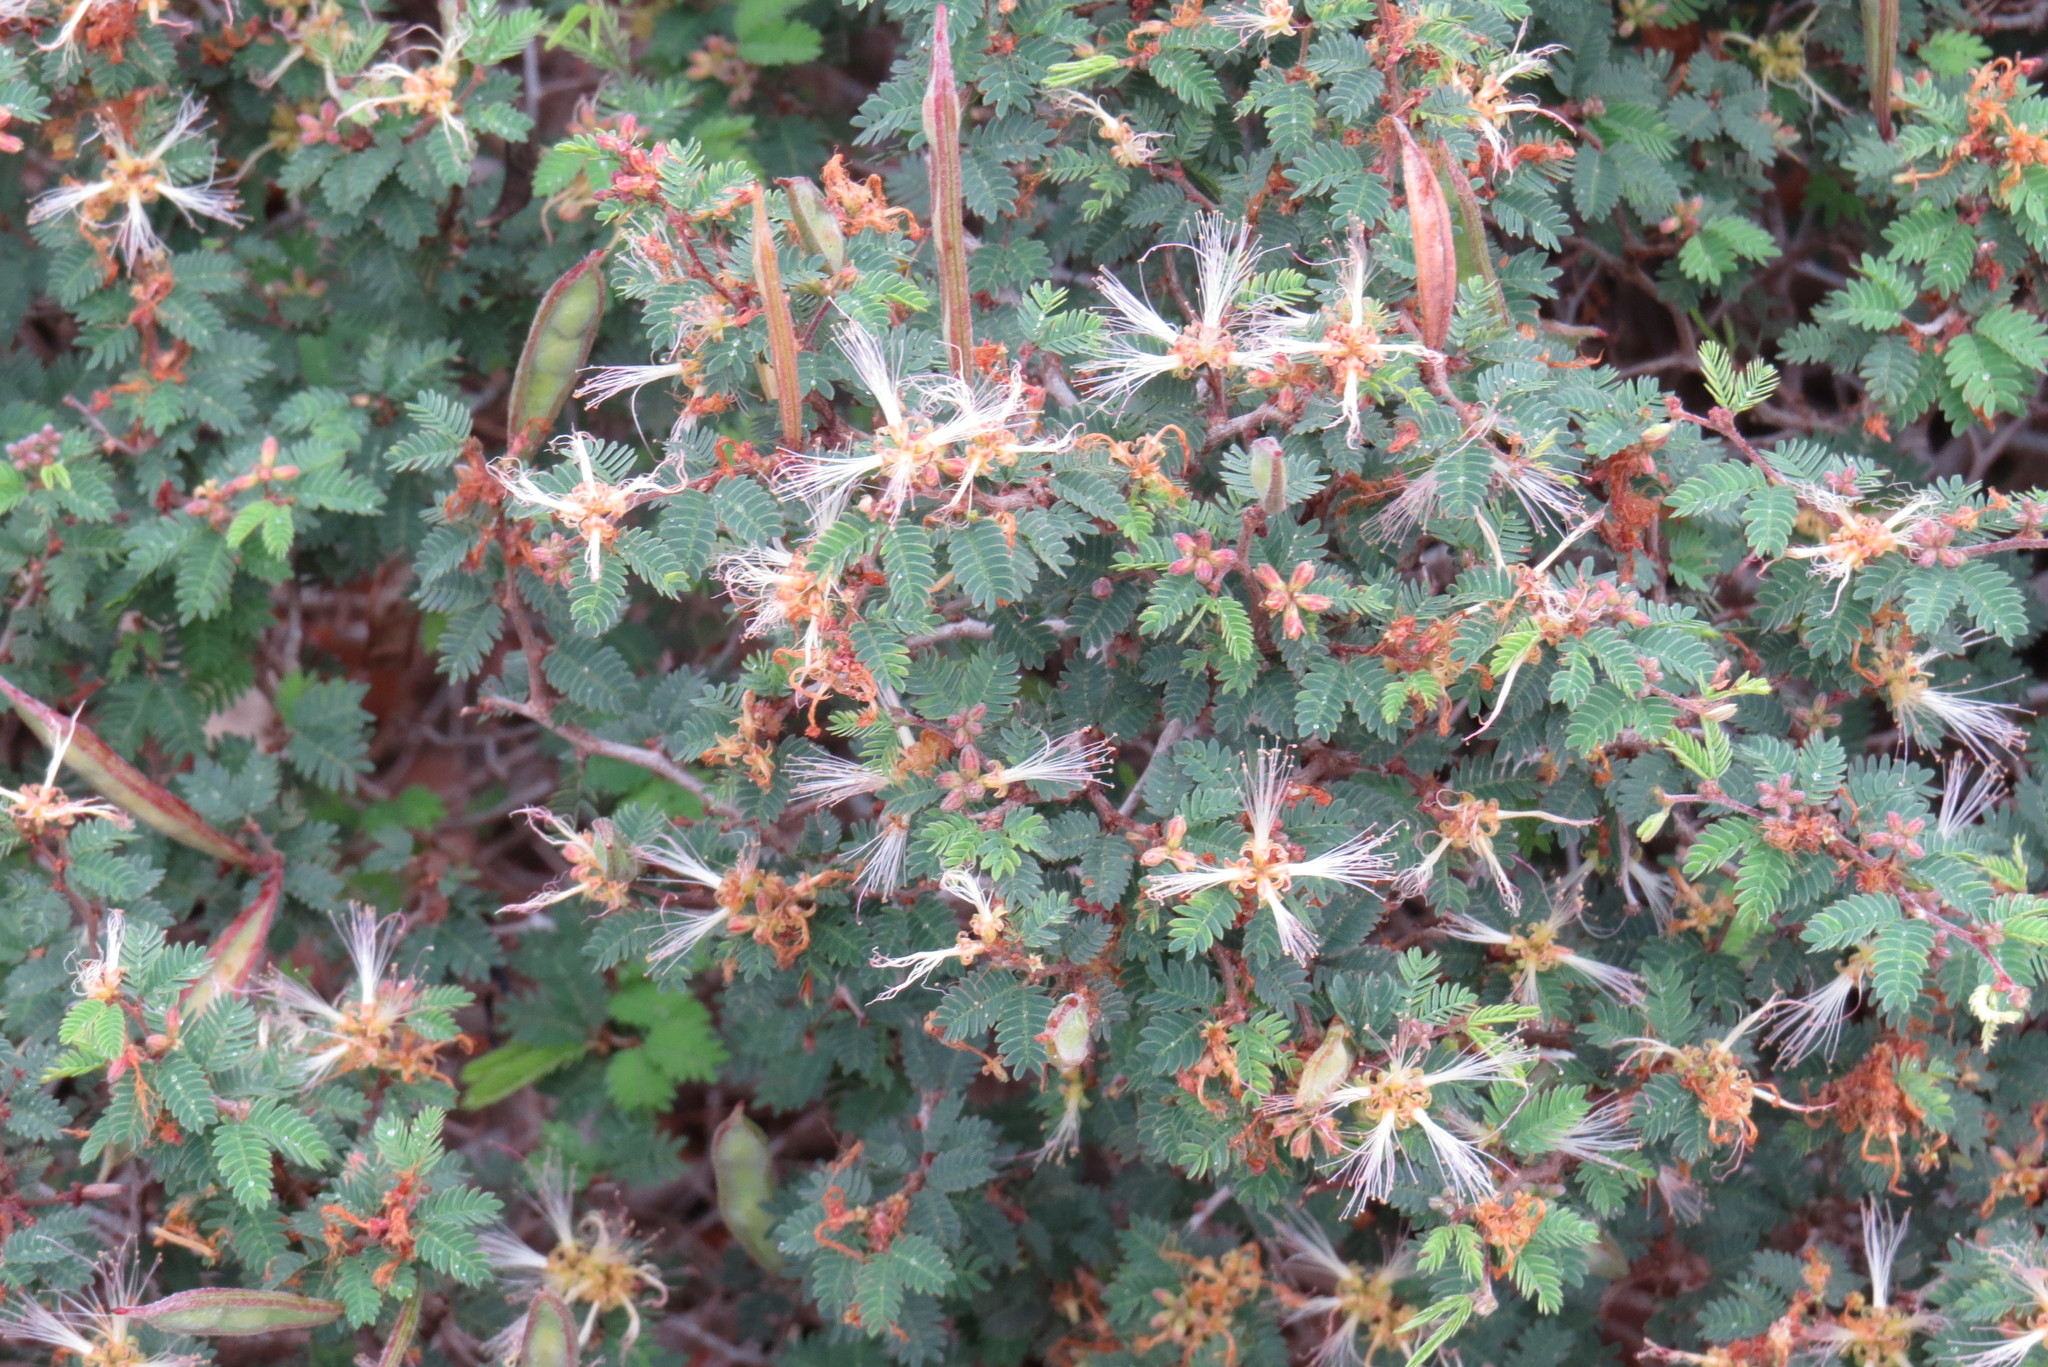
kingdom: Plantae
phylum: Tracheophyta
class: Magnoliopsida
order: Fabales
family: Fabaceae
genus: Calliandra
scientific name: Calliandra conferta
